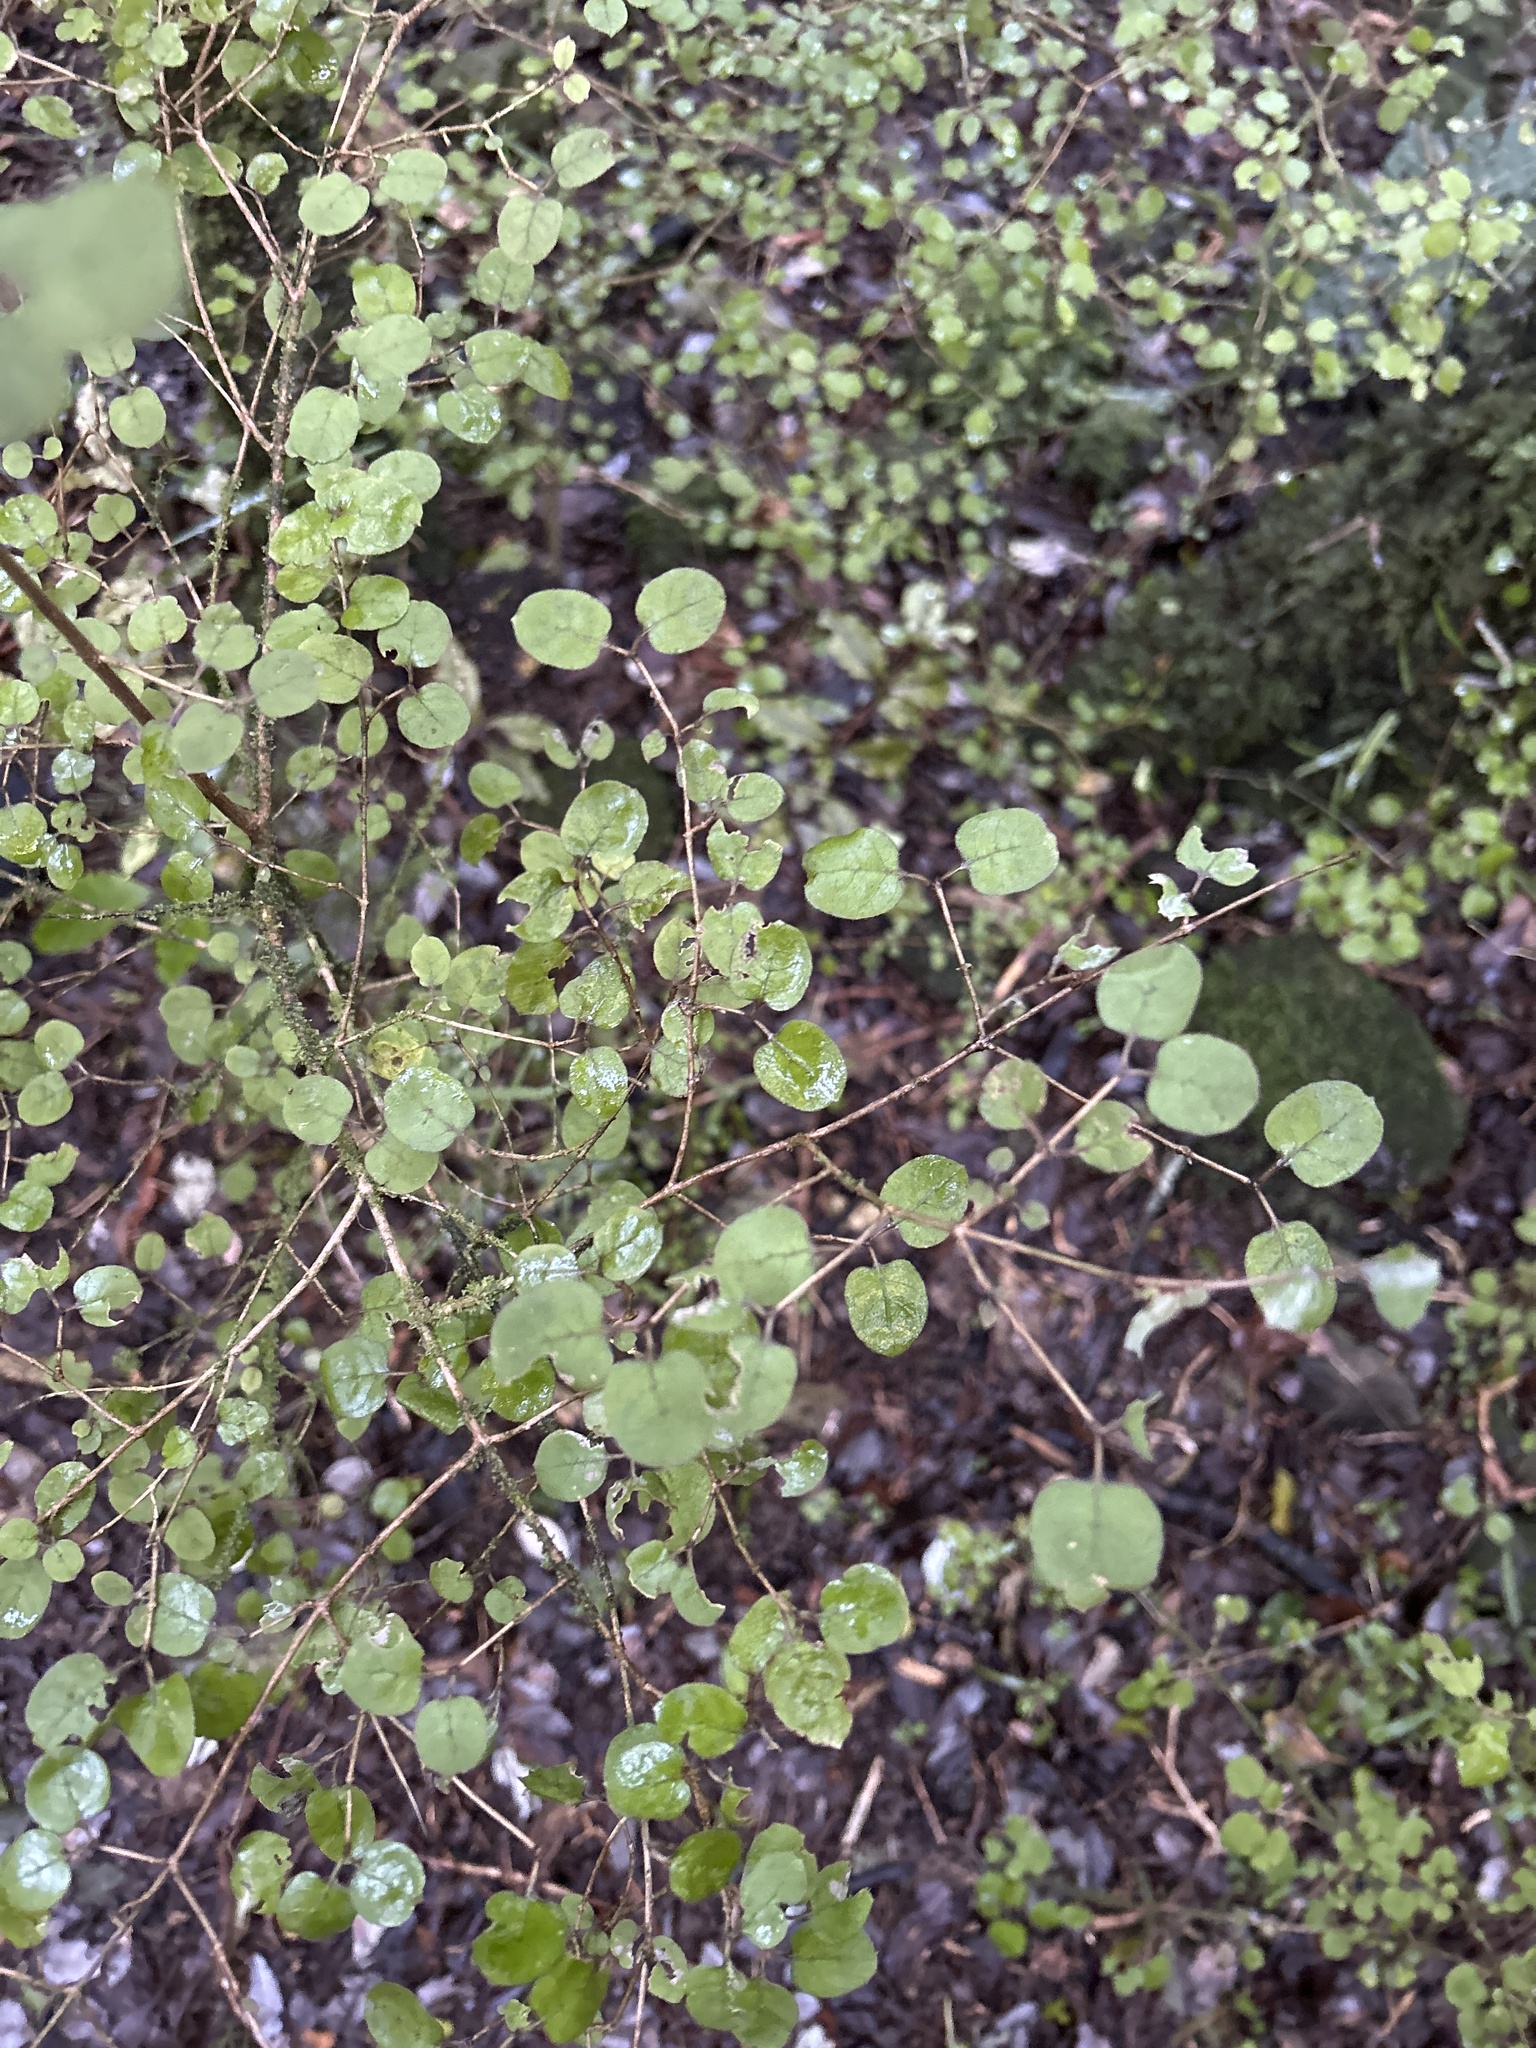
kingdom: Plantae
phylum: Tracheophyta
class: Magnoliopsida
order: Gentianales
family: Rubiaceae
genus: Coprosma
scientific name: Coprosma rotundifolia
